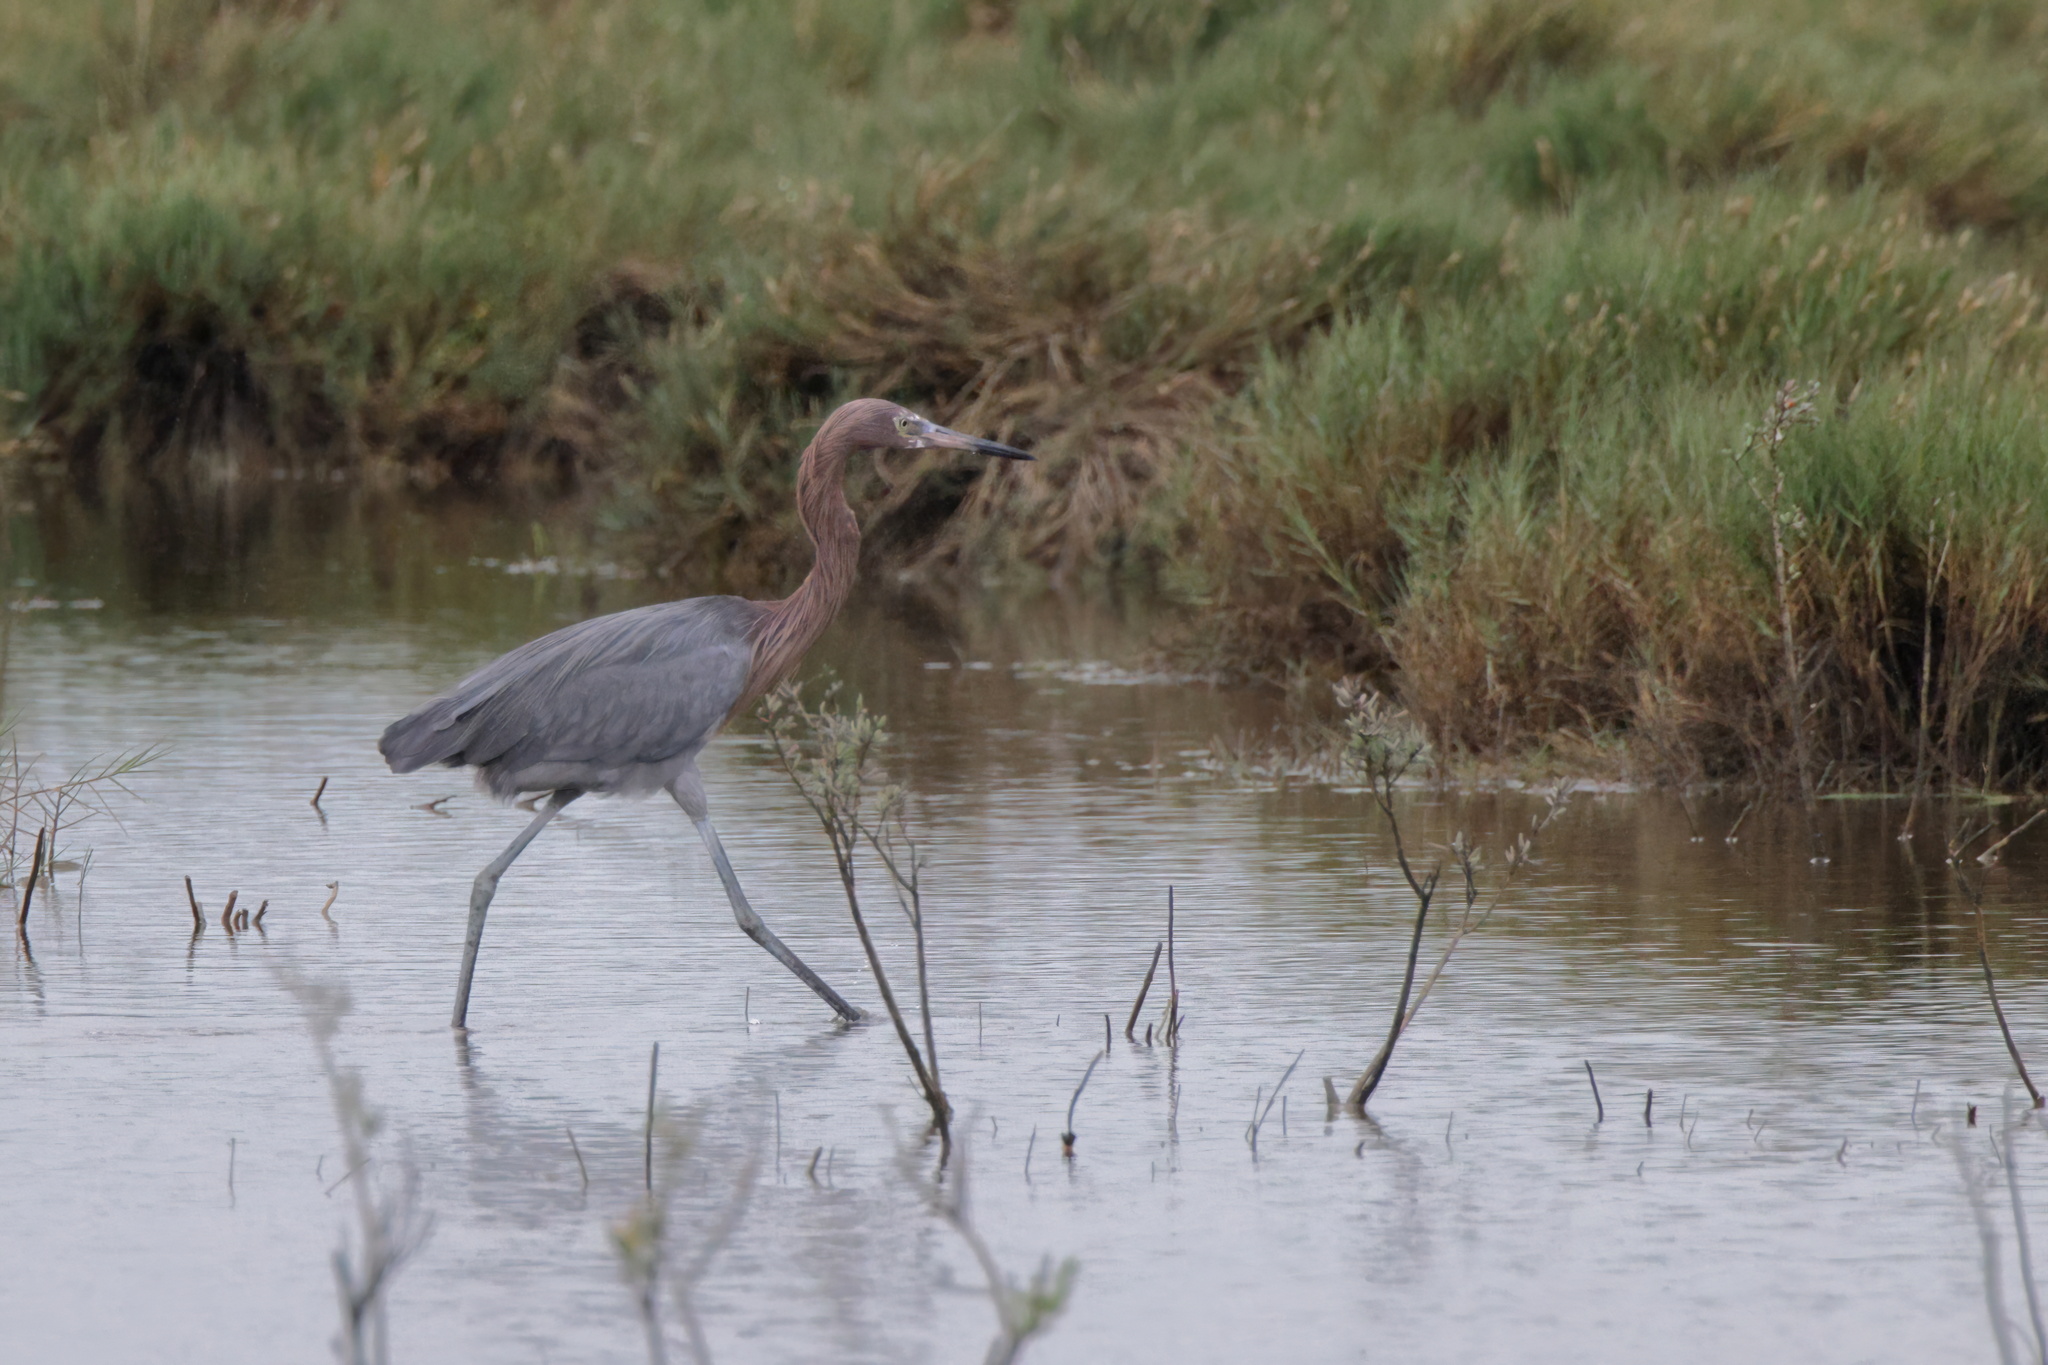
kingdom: Animalia
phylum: Chordata
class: Aves
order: Pelecaniformes
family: Ardeidae
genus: Egretta
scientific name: Egretta rufescens
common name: Reddish egret
